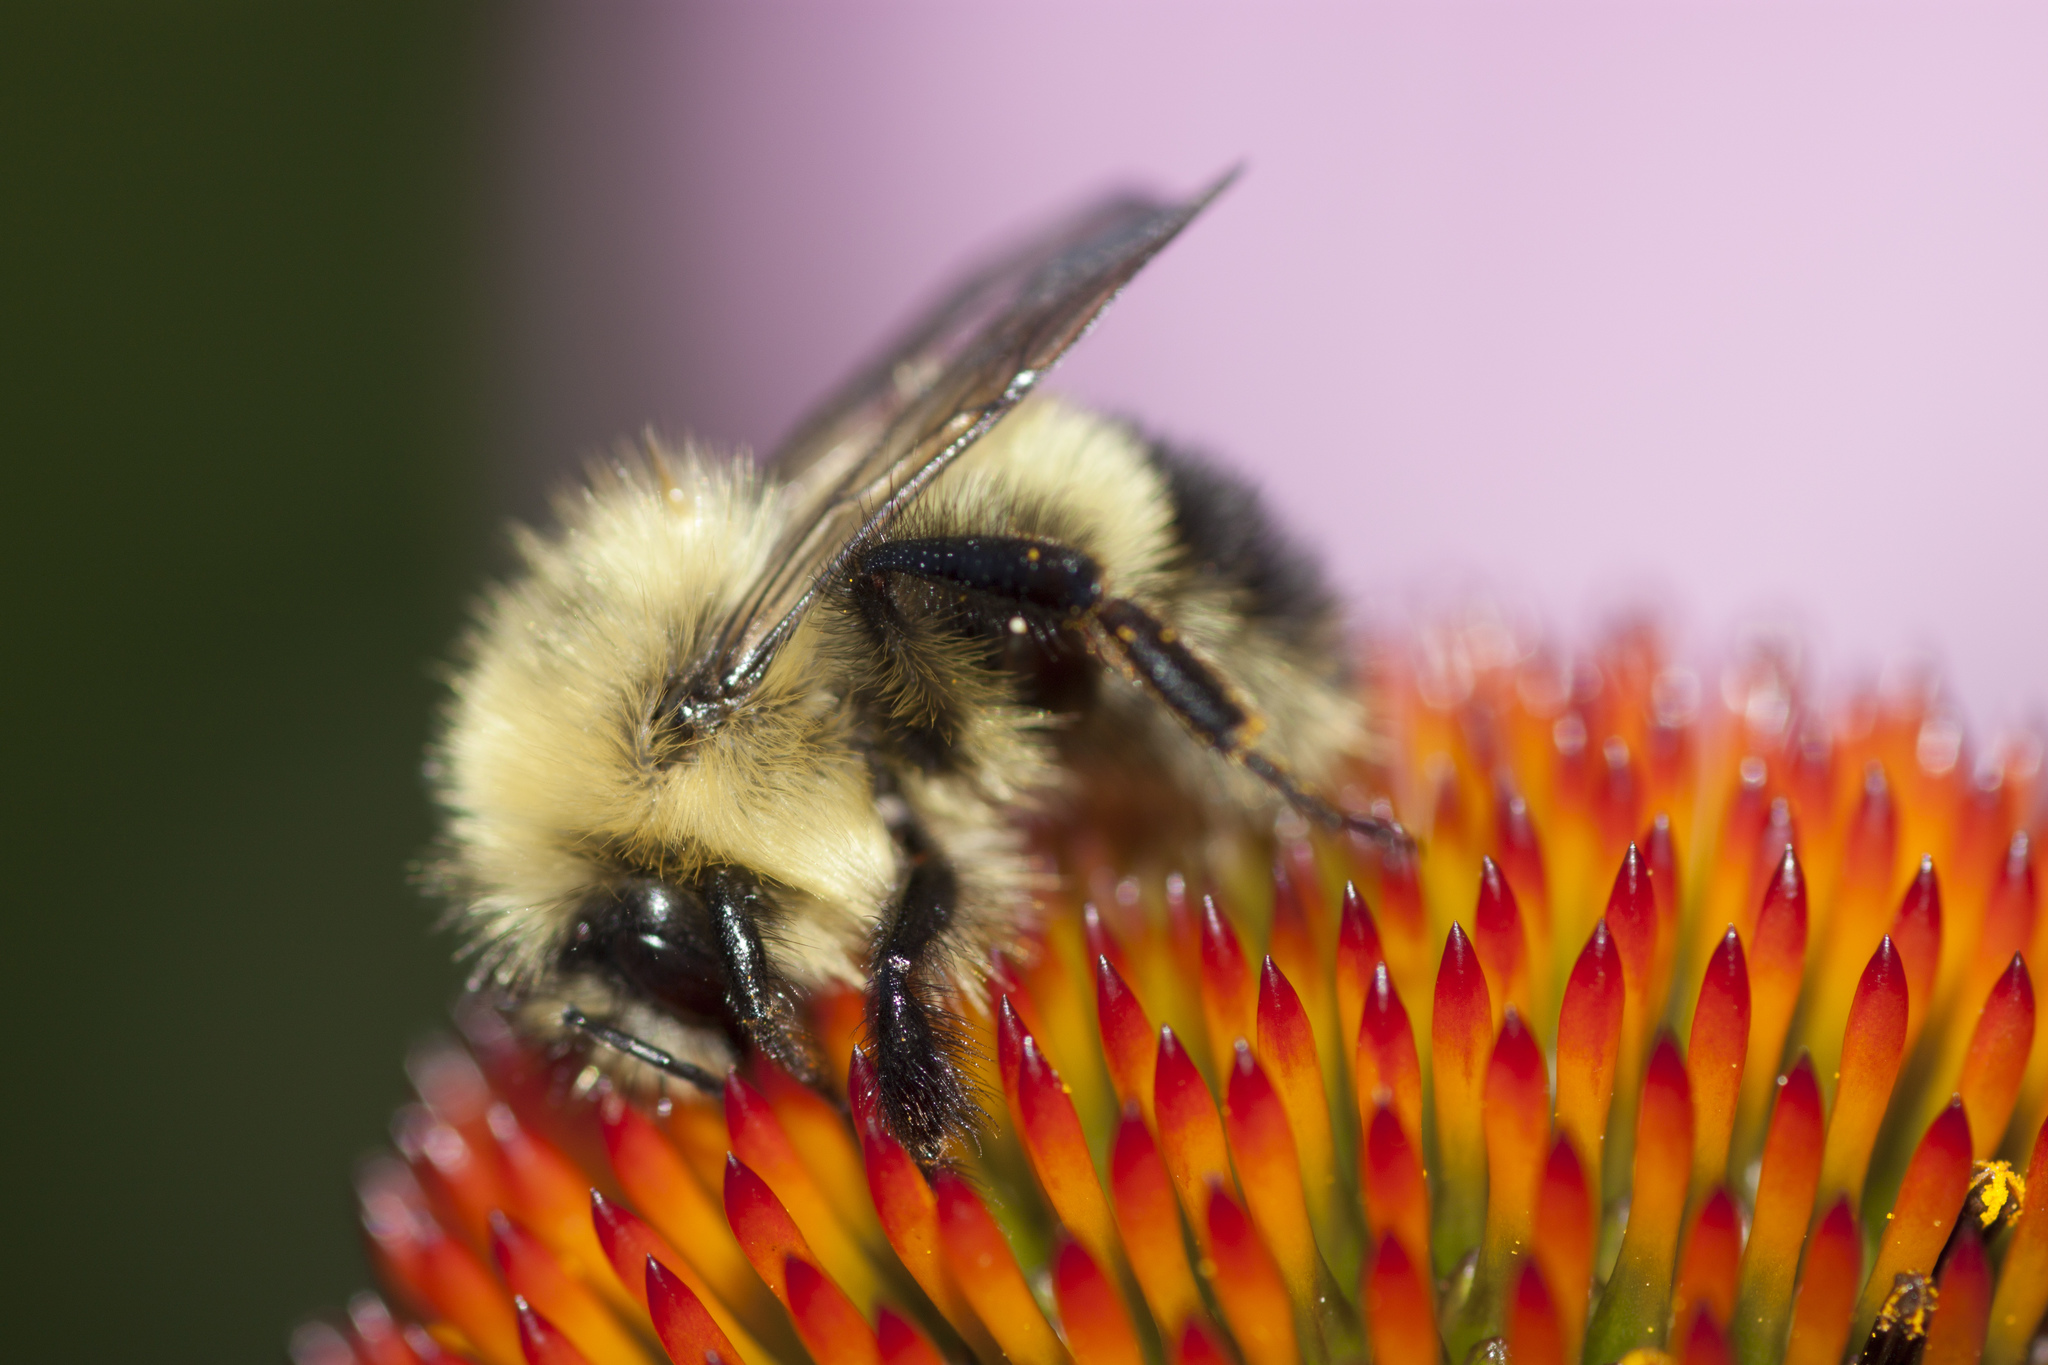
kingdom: Animalia
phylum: Arthropoda
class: Insecta
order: Hymenoptera
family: Apidae
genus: Pyrobombus
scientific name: Pyrobombus
